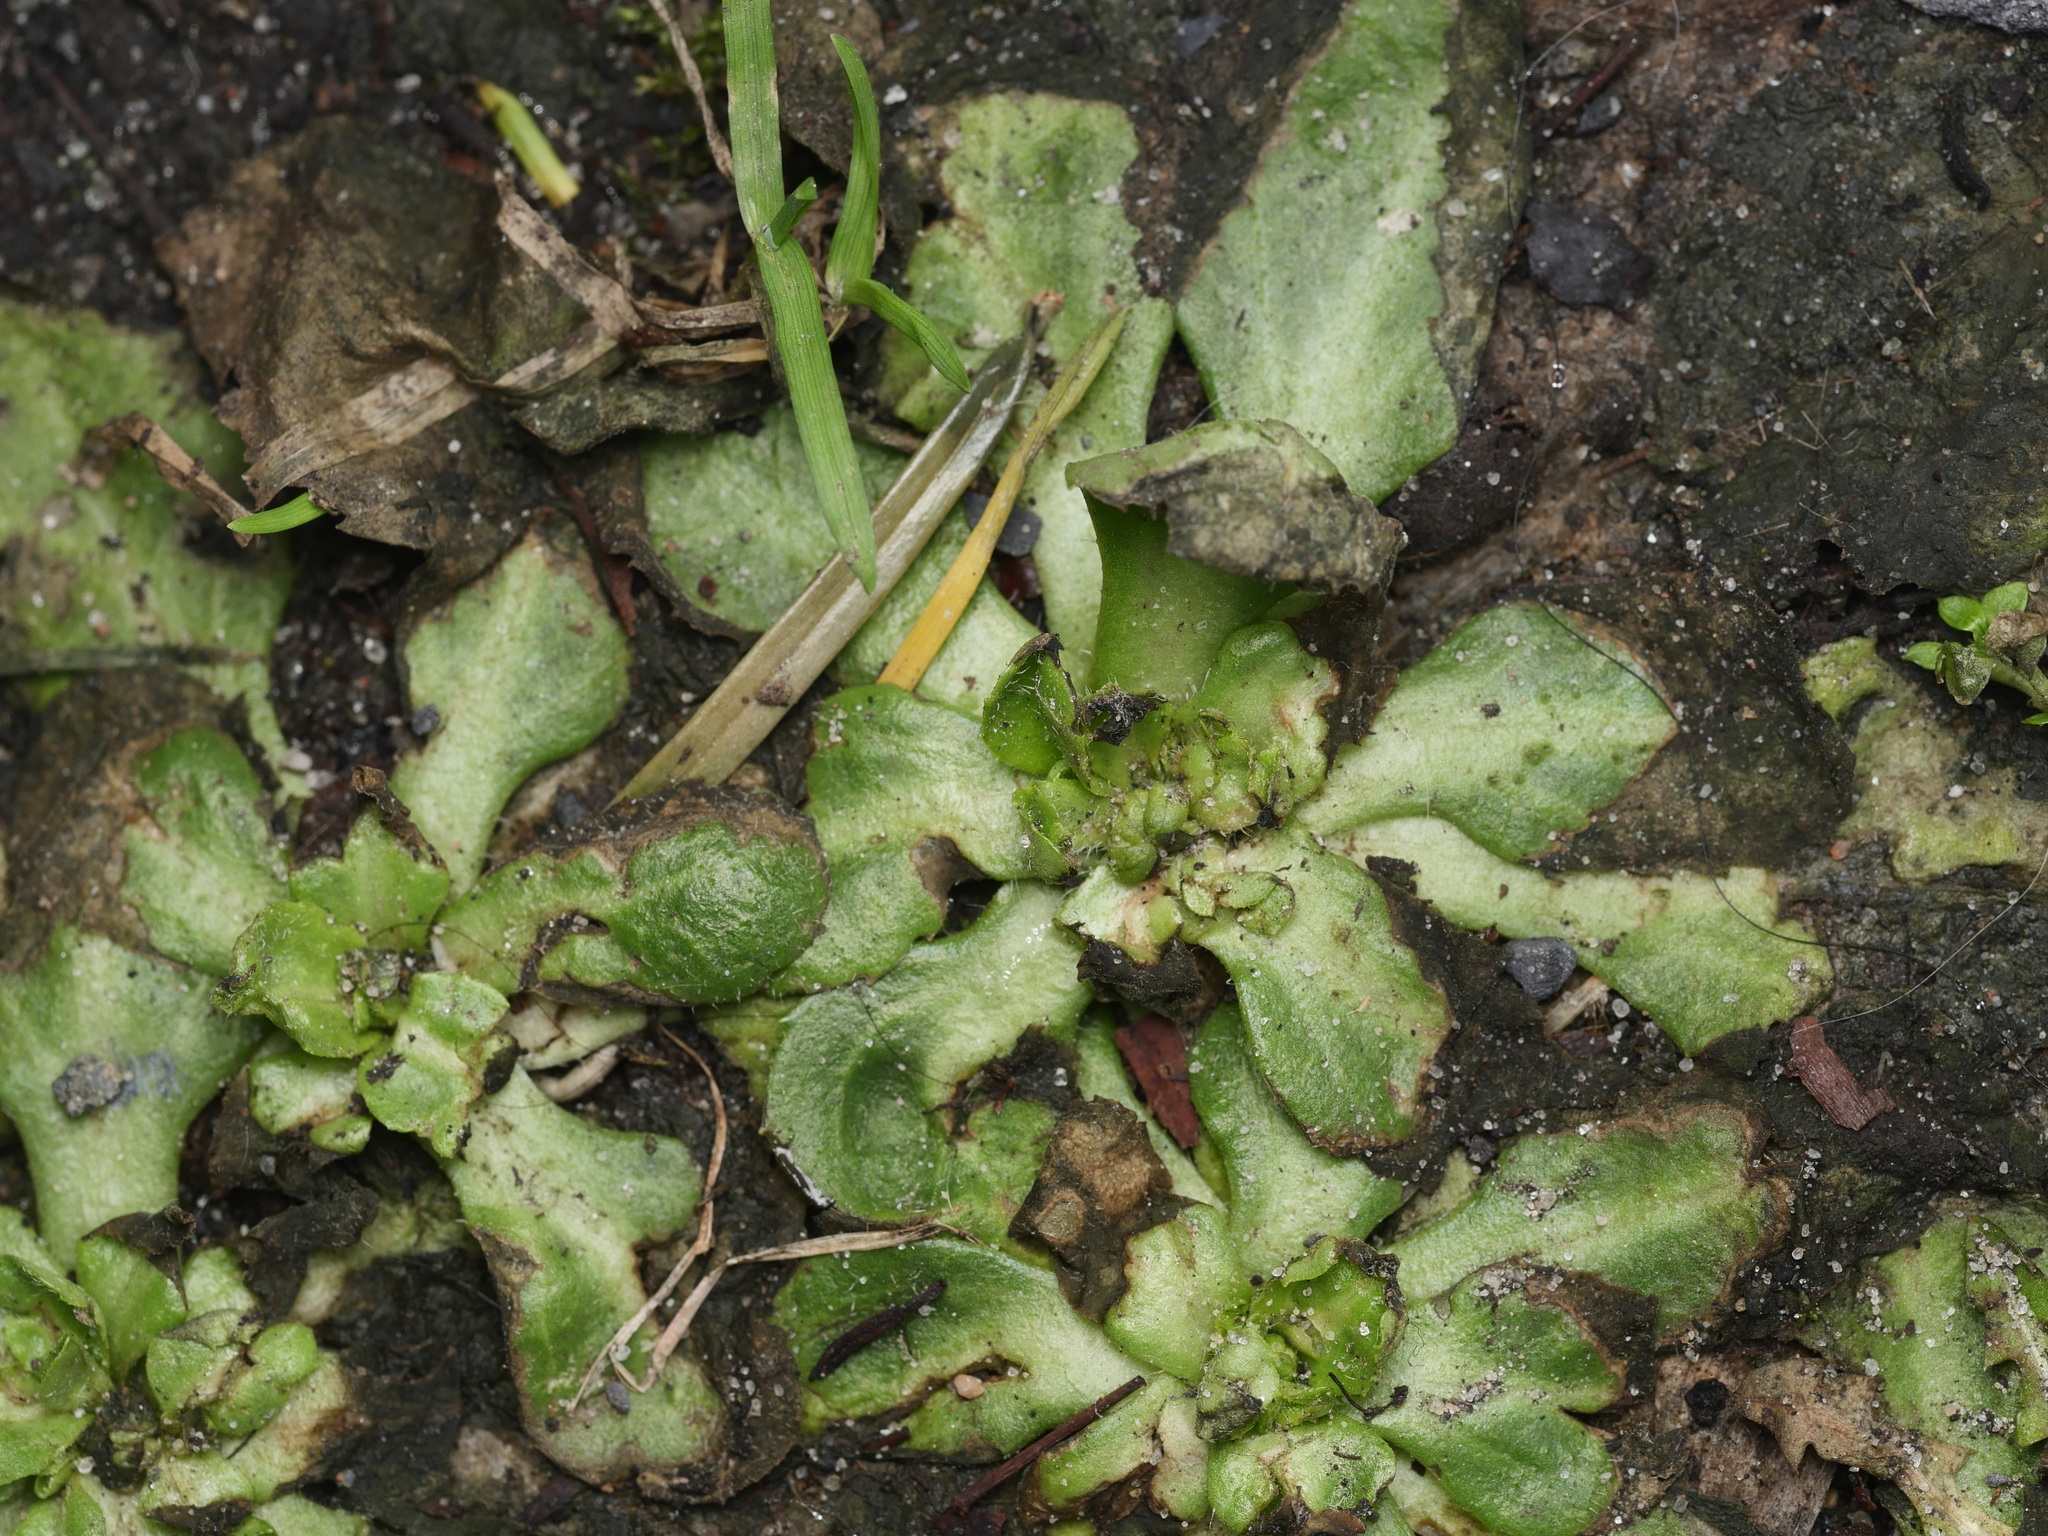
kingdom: Plantae
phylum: Tracheophyta
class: Magnoliopsida
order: Asterales
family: Asteraceae
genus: Bellis
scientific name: Bellis perennis
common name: Lawndaisy
